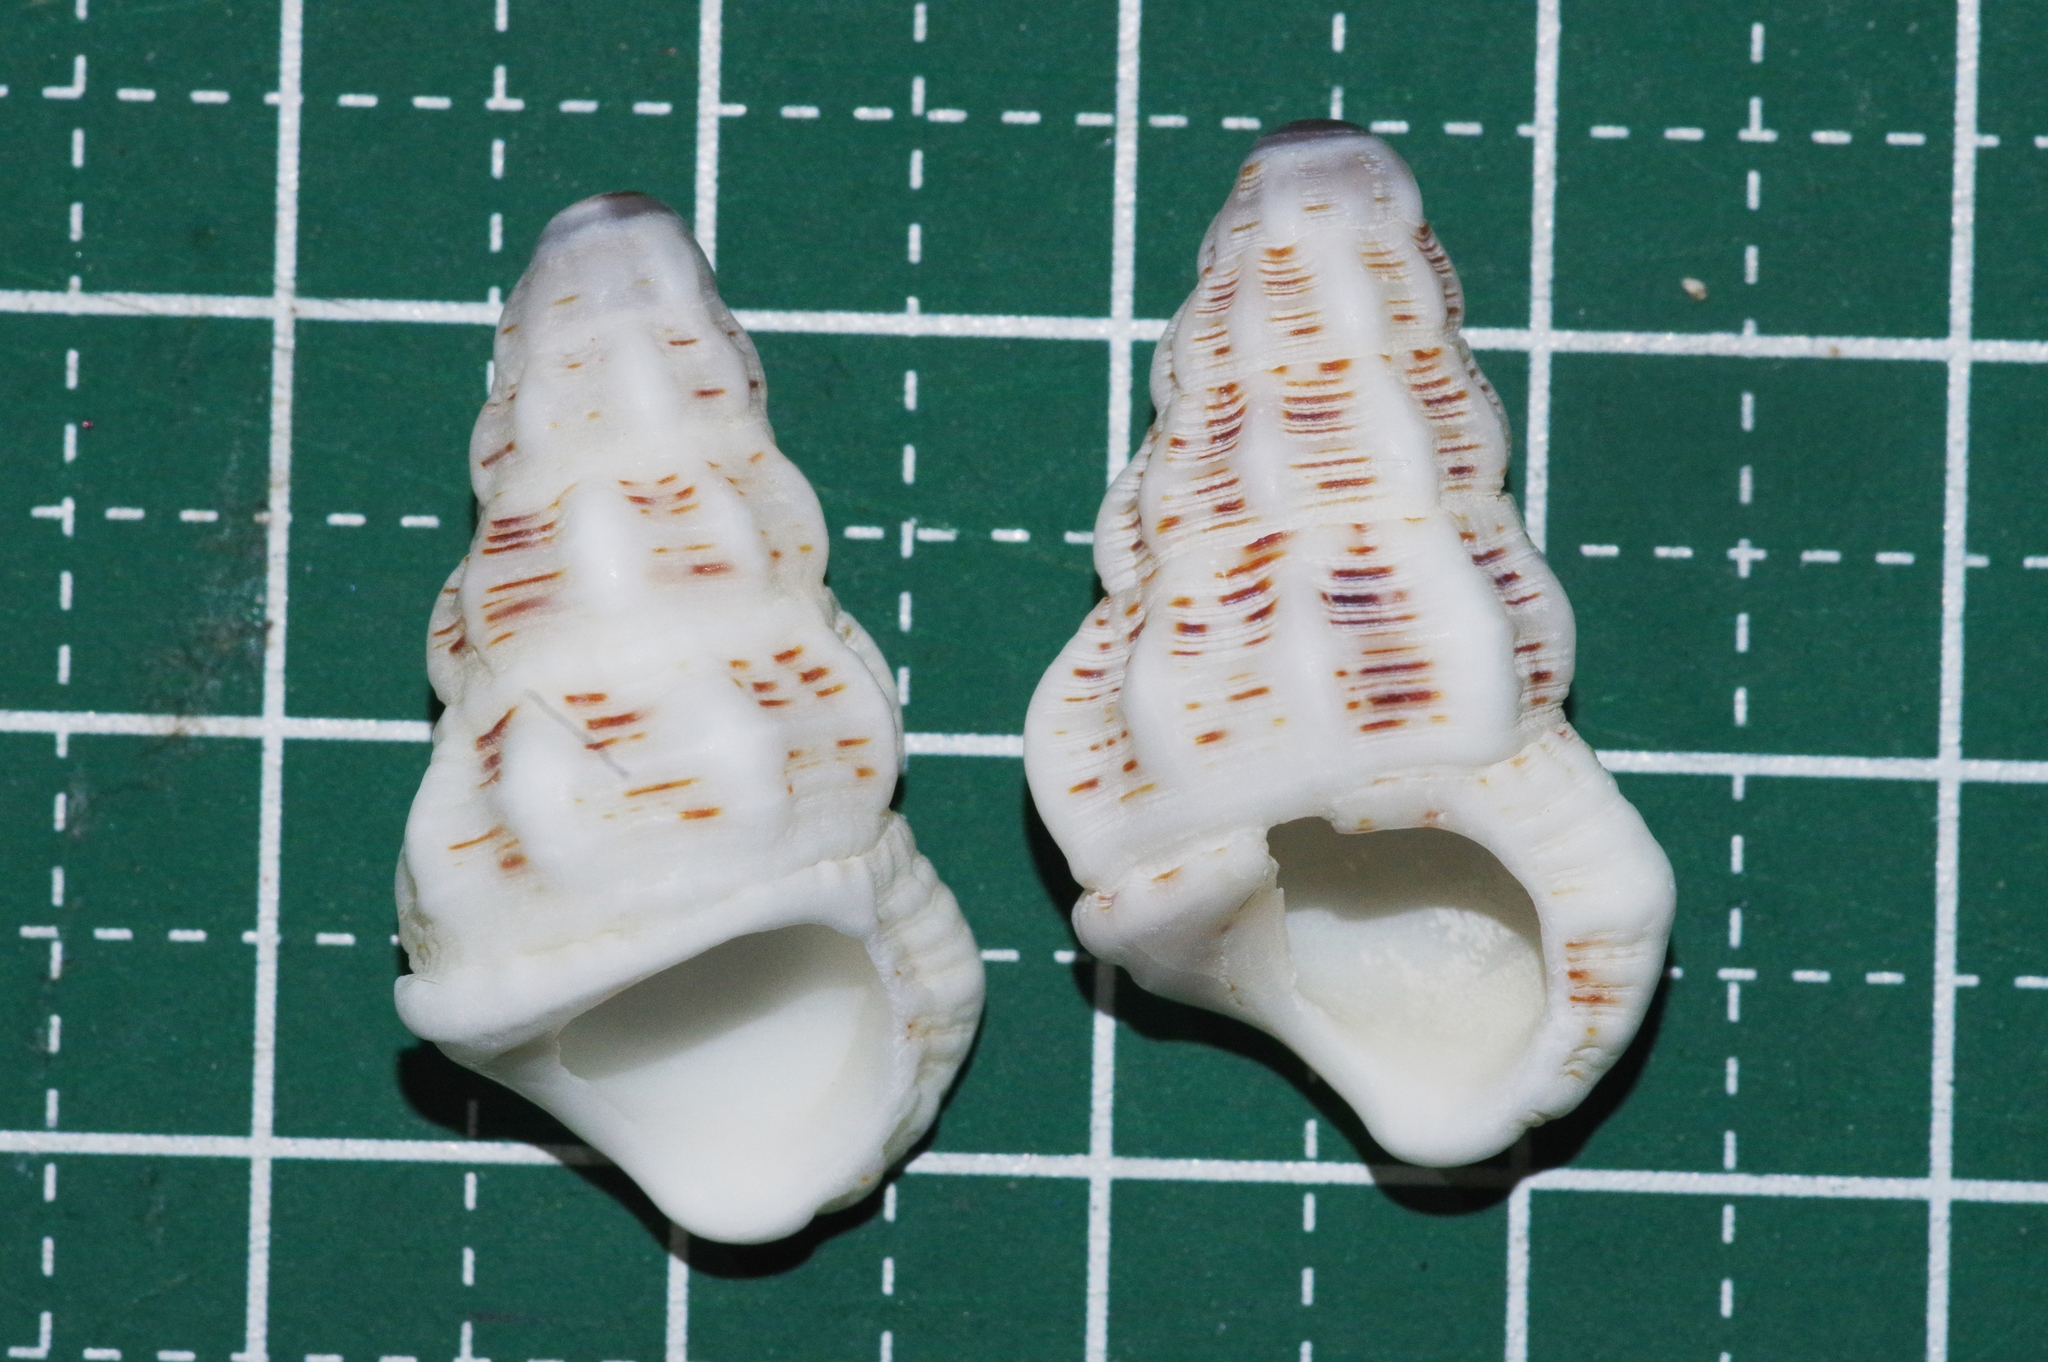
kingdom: Animalia
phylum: Mollusca
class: Gastropoda
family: Cerithiidae
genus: Cerithium
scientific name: Cerithium columna
